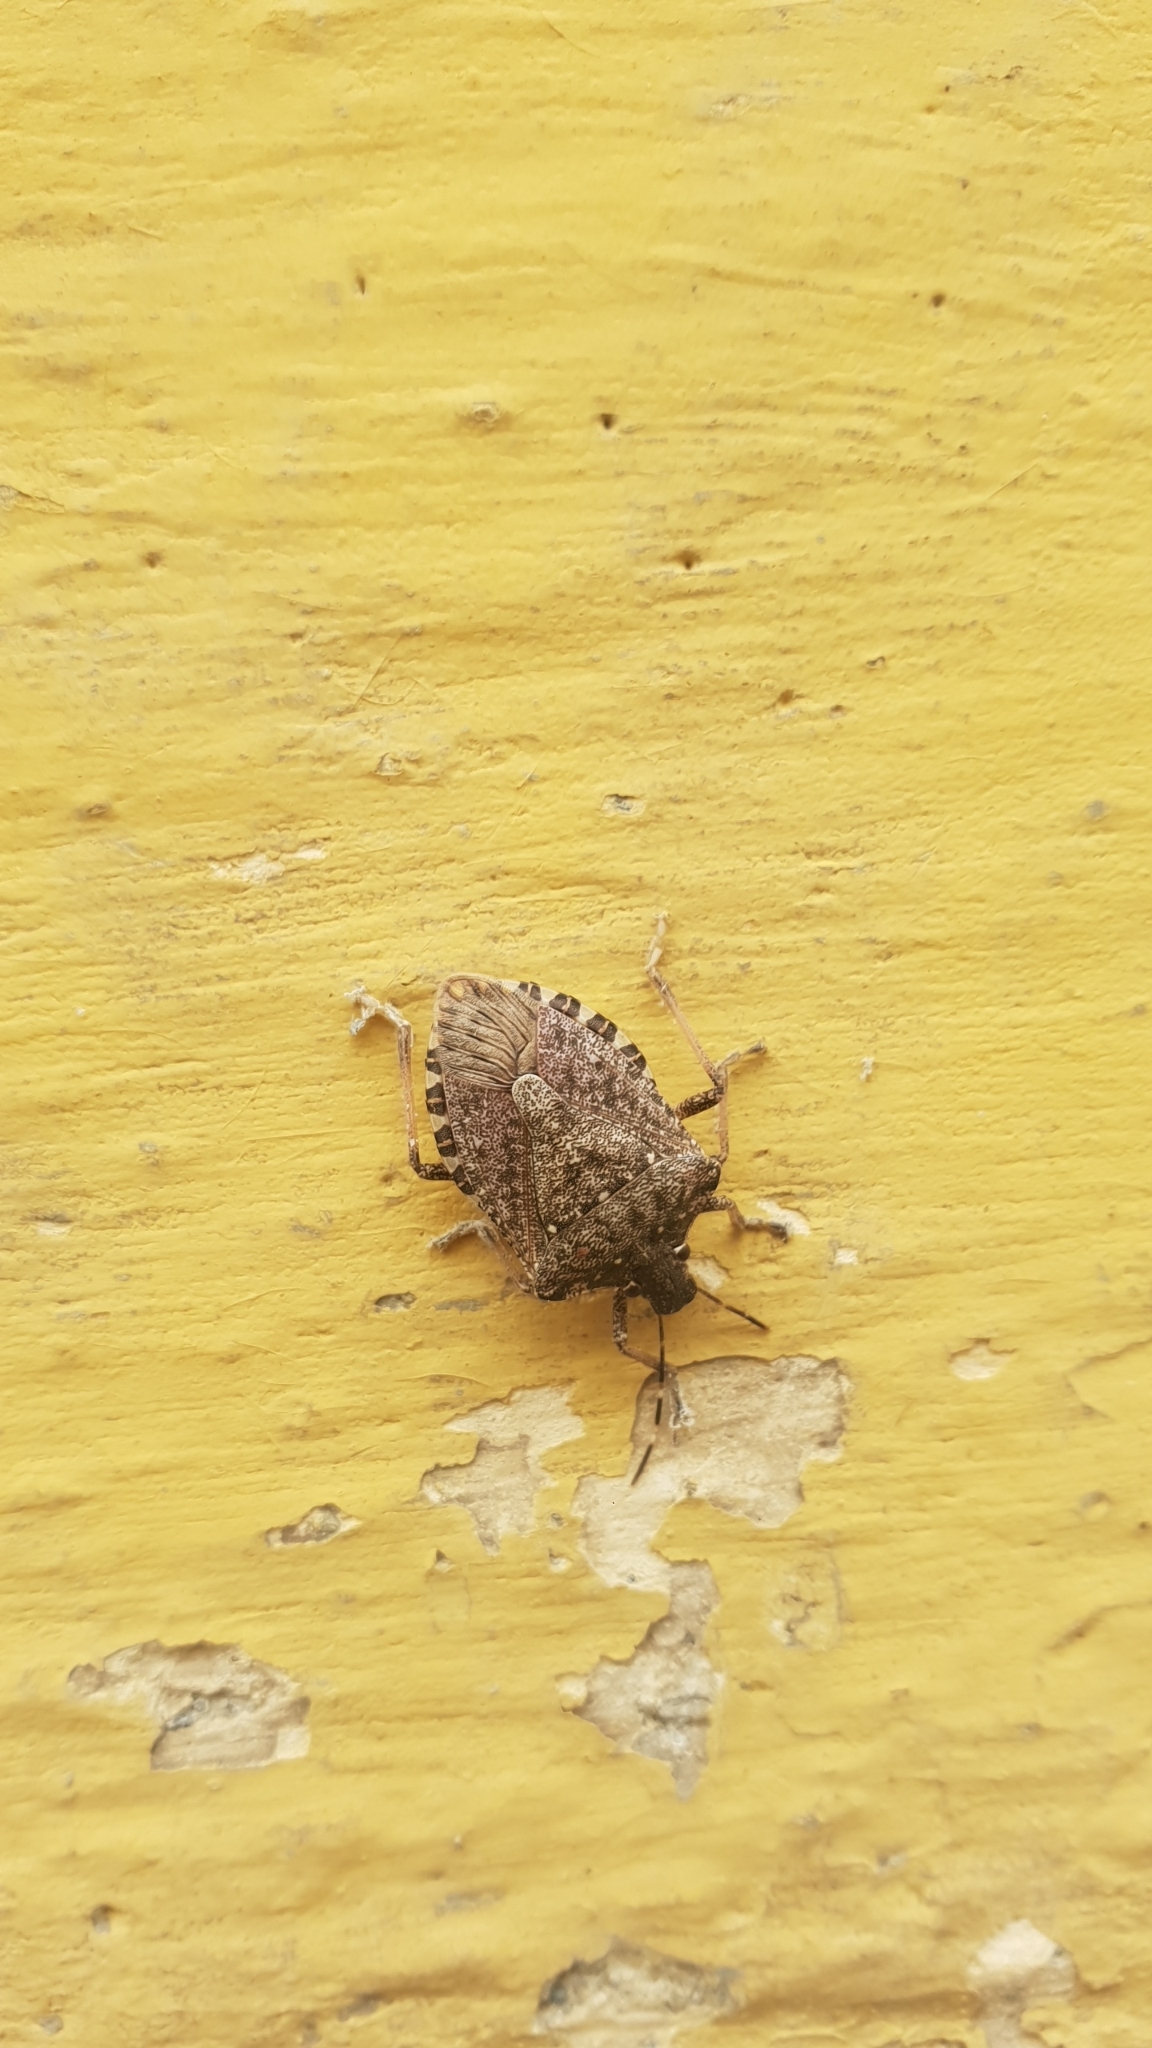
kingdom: Animalia
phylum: Arthropoda
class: Insecta
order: Hemiptera
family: Pentatomidae
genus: Halyomorpha
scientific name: Halyomorpha halys
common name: Brown marmorated stink bug
